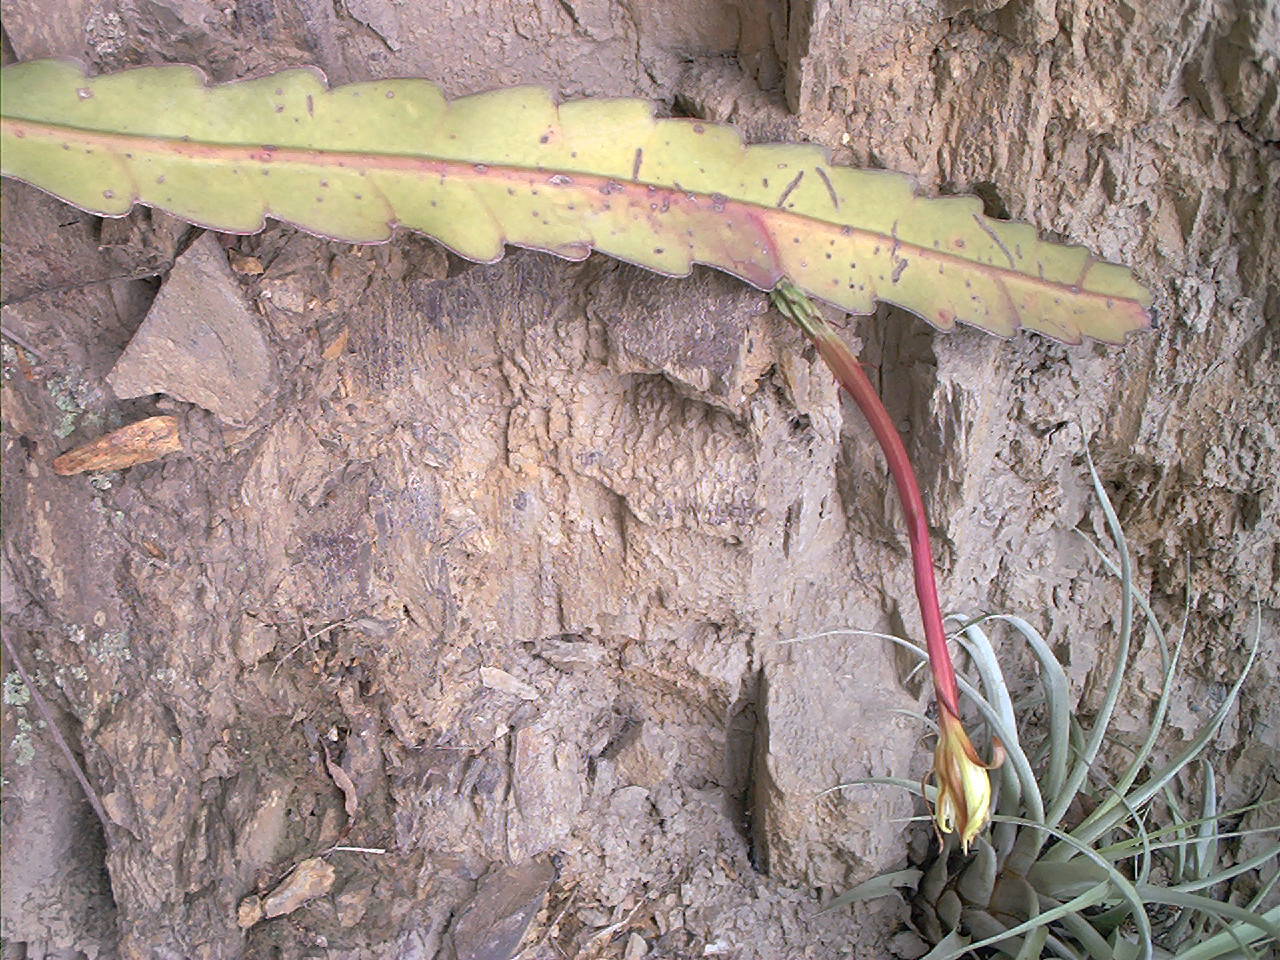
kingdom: Plantae
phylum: Tracheophyta
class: Magnoliopsida
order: Caryophyllales
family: Cactaceae
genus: Epiphyllum
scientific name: Epiphyllum phyllanthus
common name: Climbing cactus
